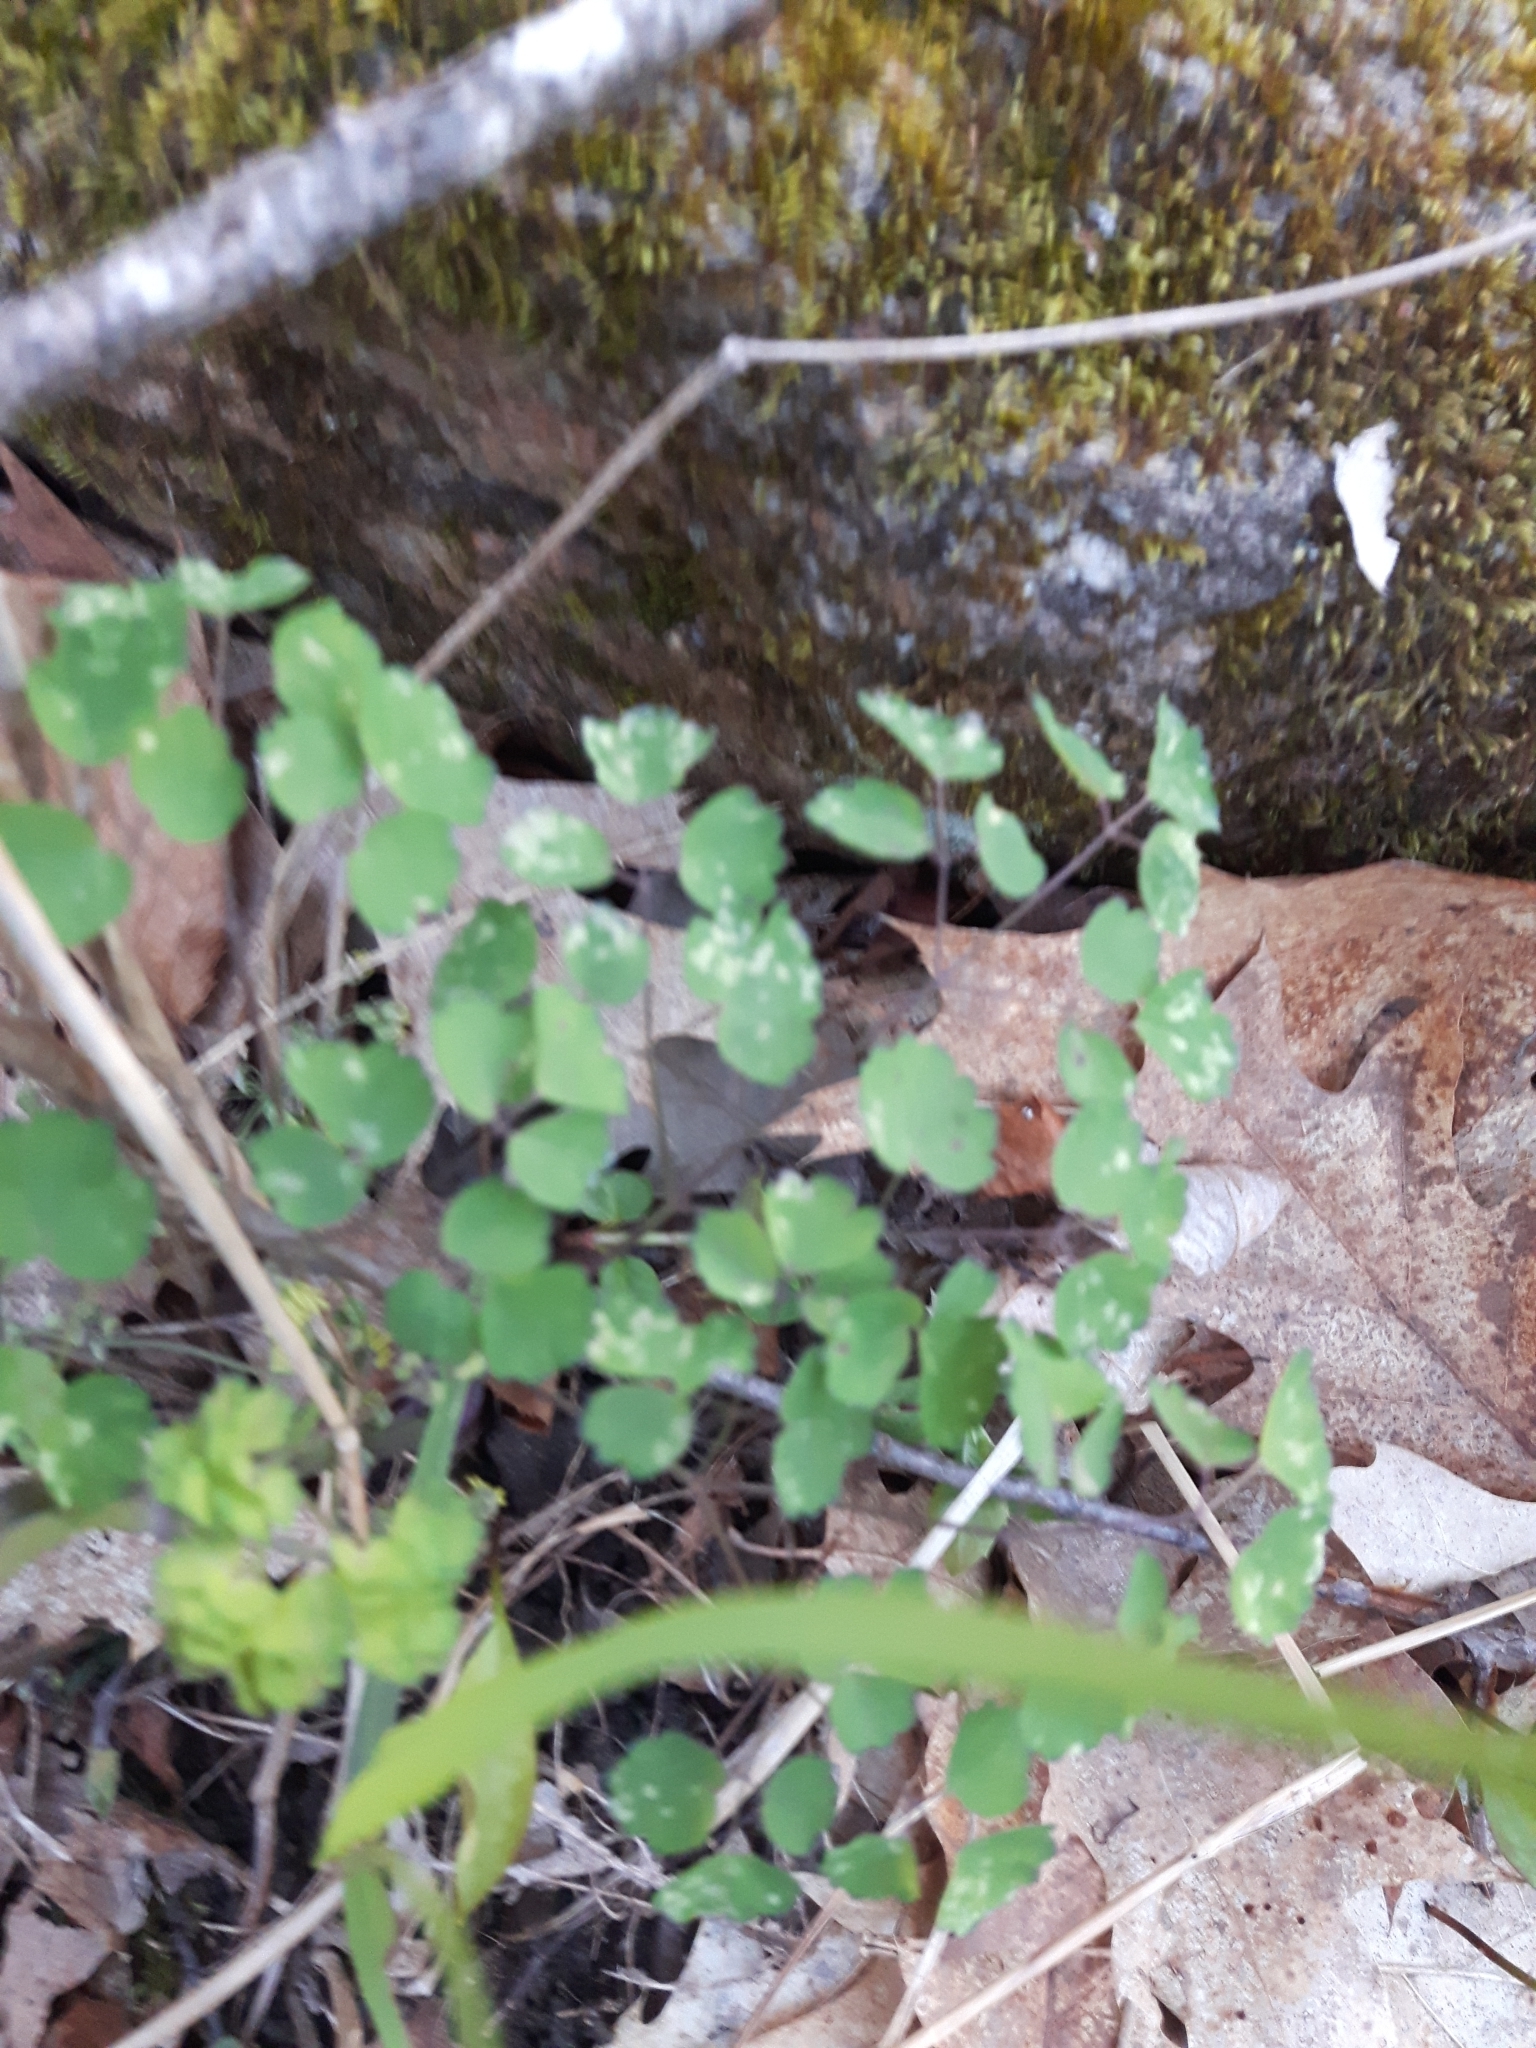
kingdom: Plantae
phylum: Tracheophyta
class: Magnoliopsida
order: Ranunculales
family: Ranunculaceae
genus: Thalictrum
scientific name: Thalictrum dioicum
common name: Early meadow-rue
